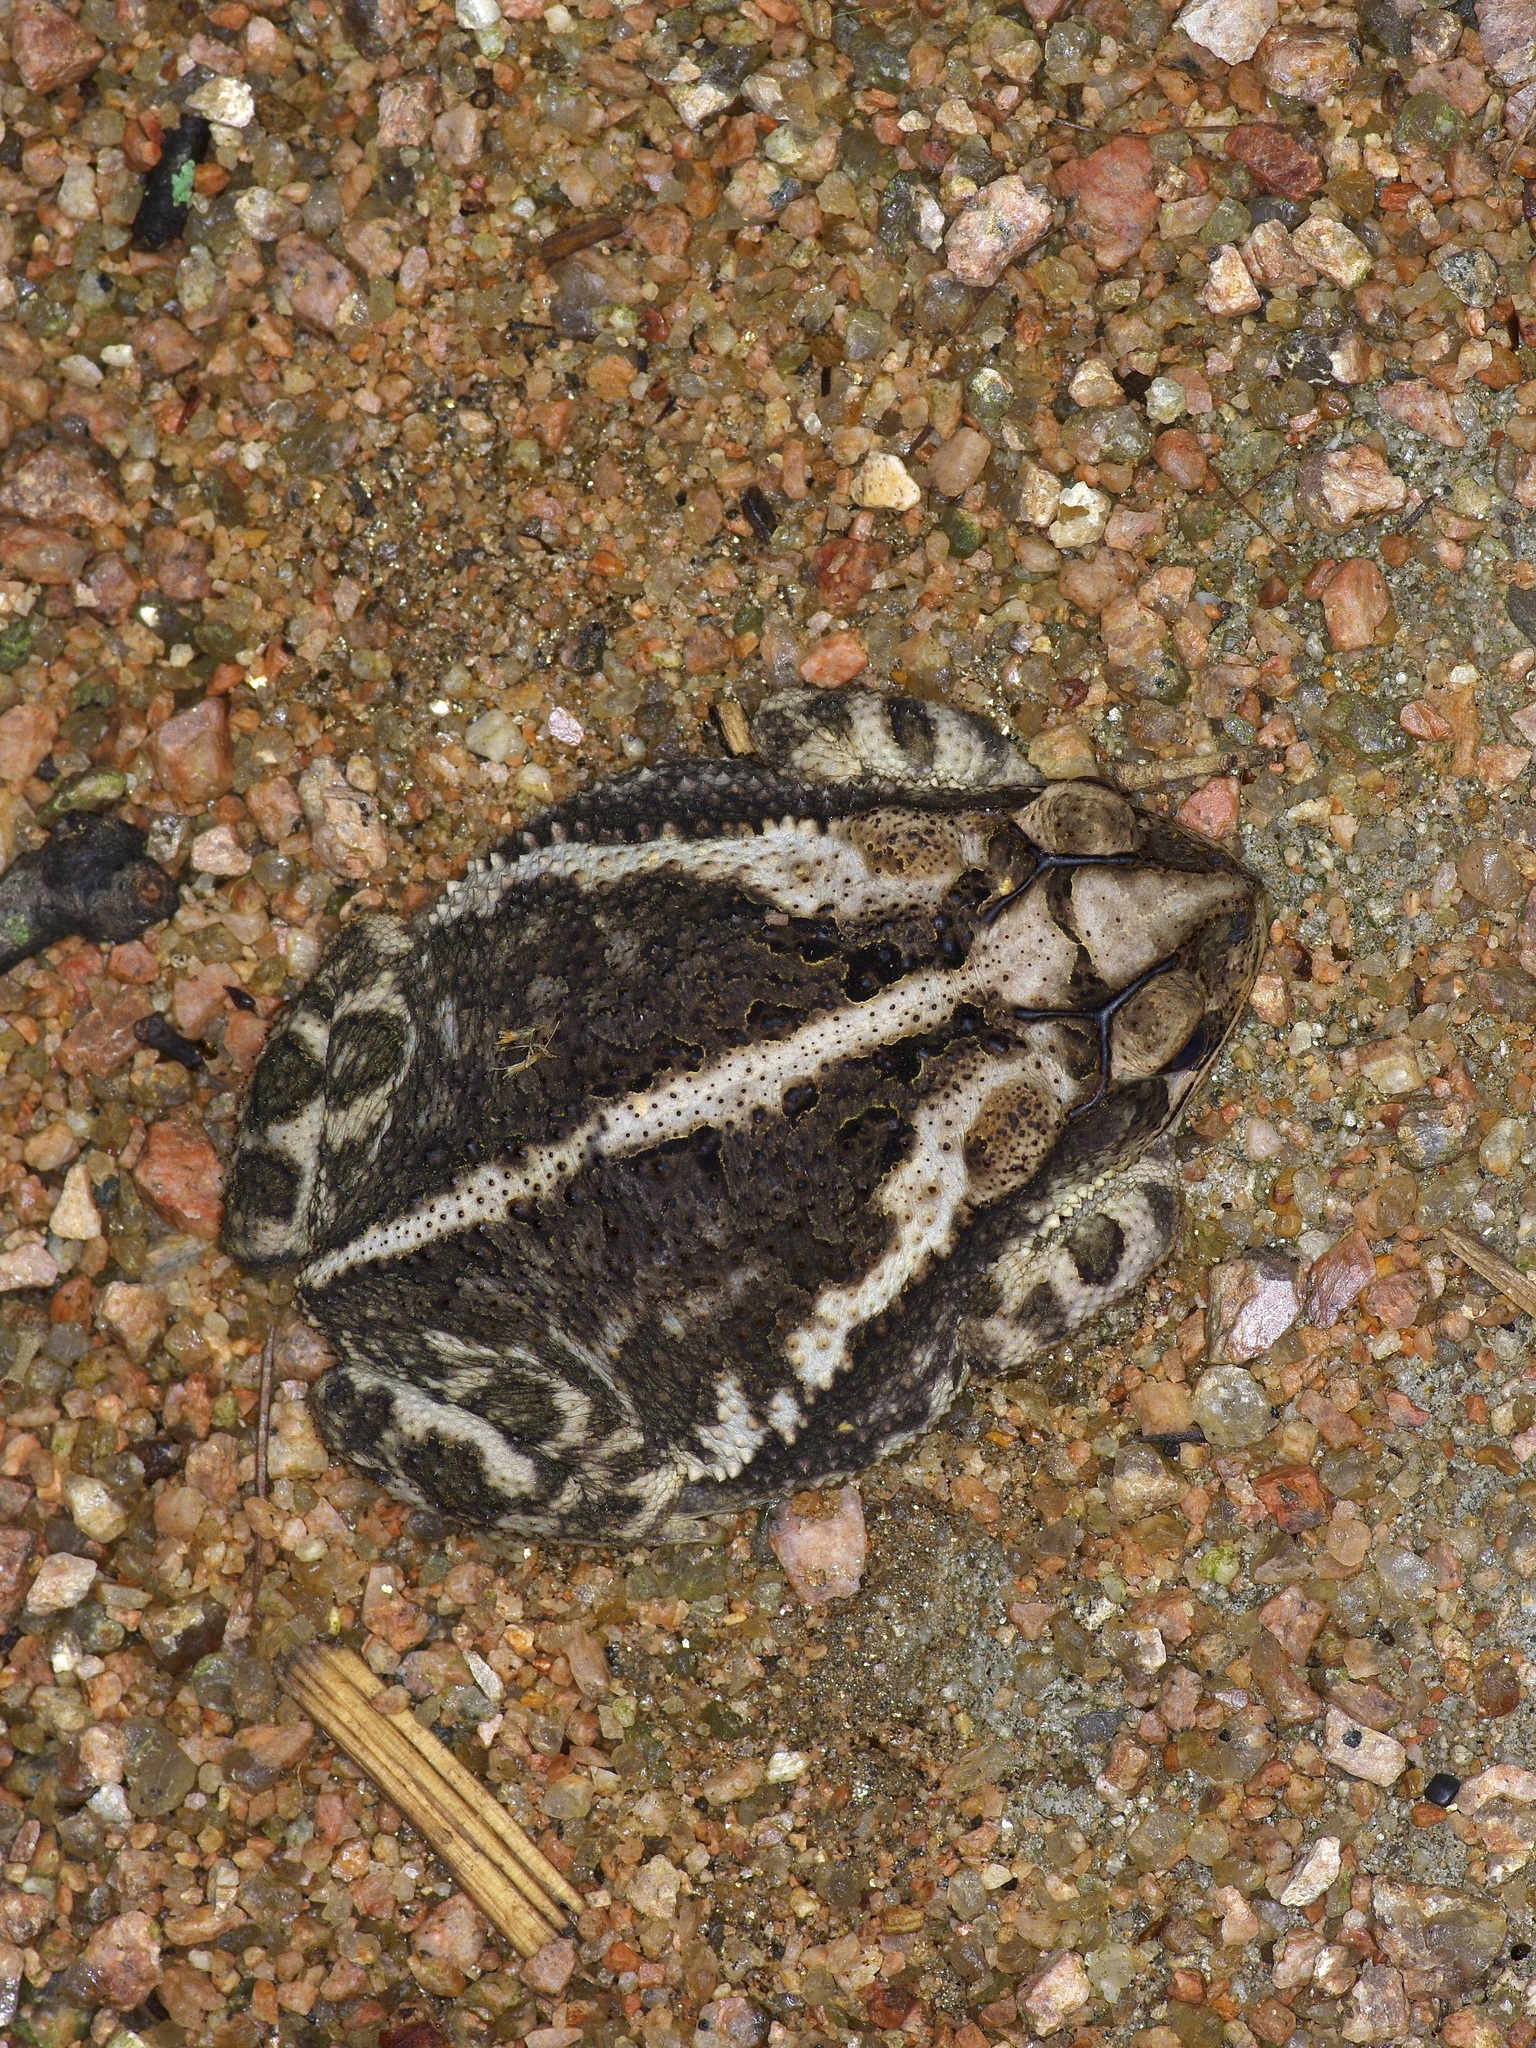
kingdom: Animalia
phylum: Chordata
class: Amphibia
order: Anura
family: Bufonidae
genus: Incilius
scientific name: Incilius nebulifer
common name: Gulf coast toad
